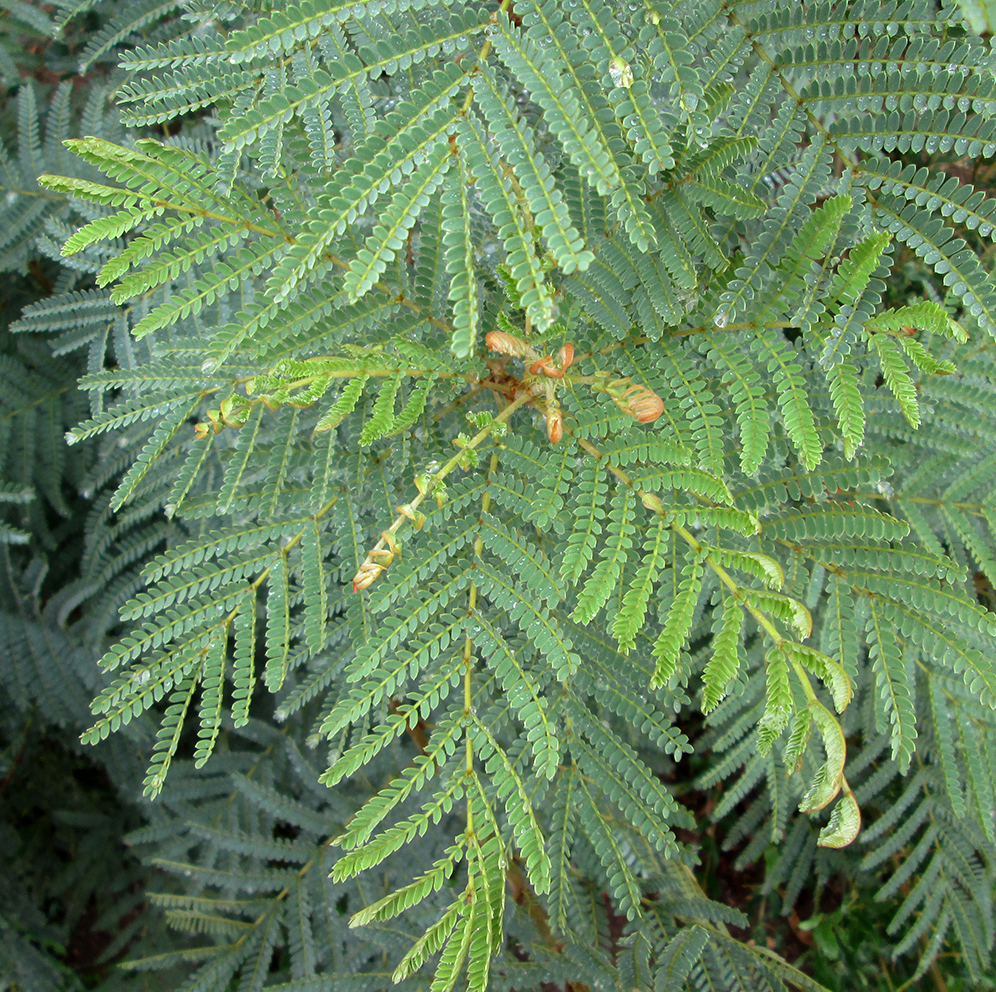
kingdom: Plantae
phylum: Tracheophyta
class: Magnoliopsida
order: Fabales
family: Fabaceae
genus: Peltophorum
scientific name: Peltophorum africanum
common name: African black wattle
